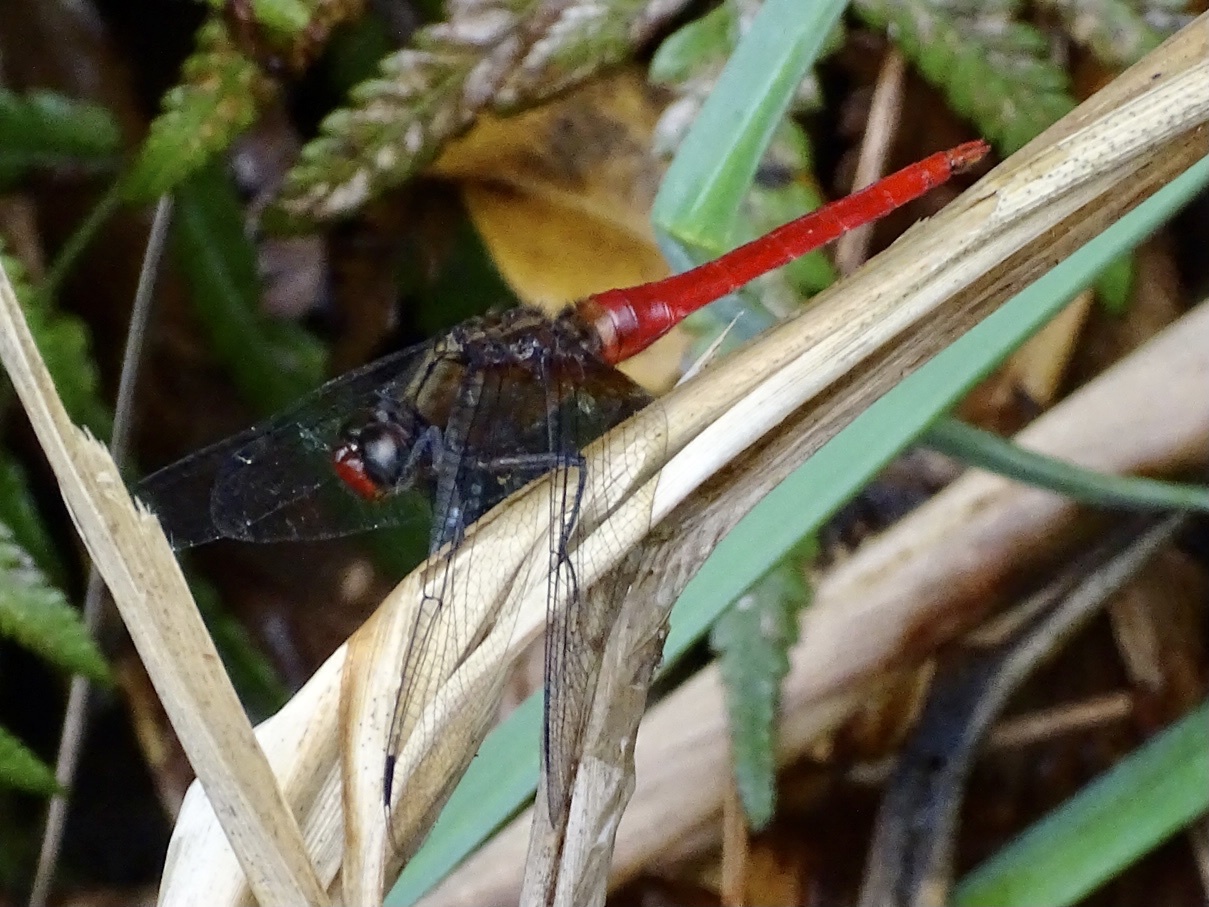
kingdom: Animalia
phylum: Arthropoda
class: Insecta
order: Odonata
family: Libellulidae
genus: Orthetrum
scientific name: Orthetrum chrysis
